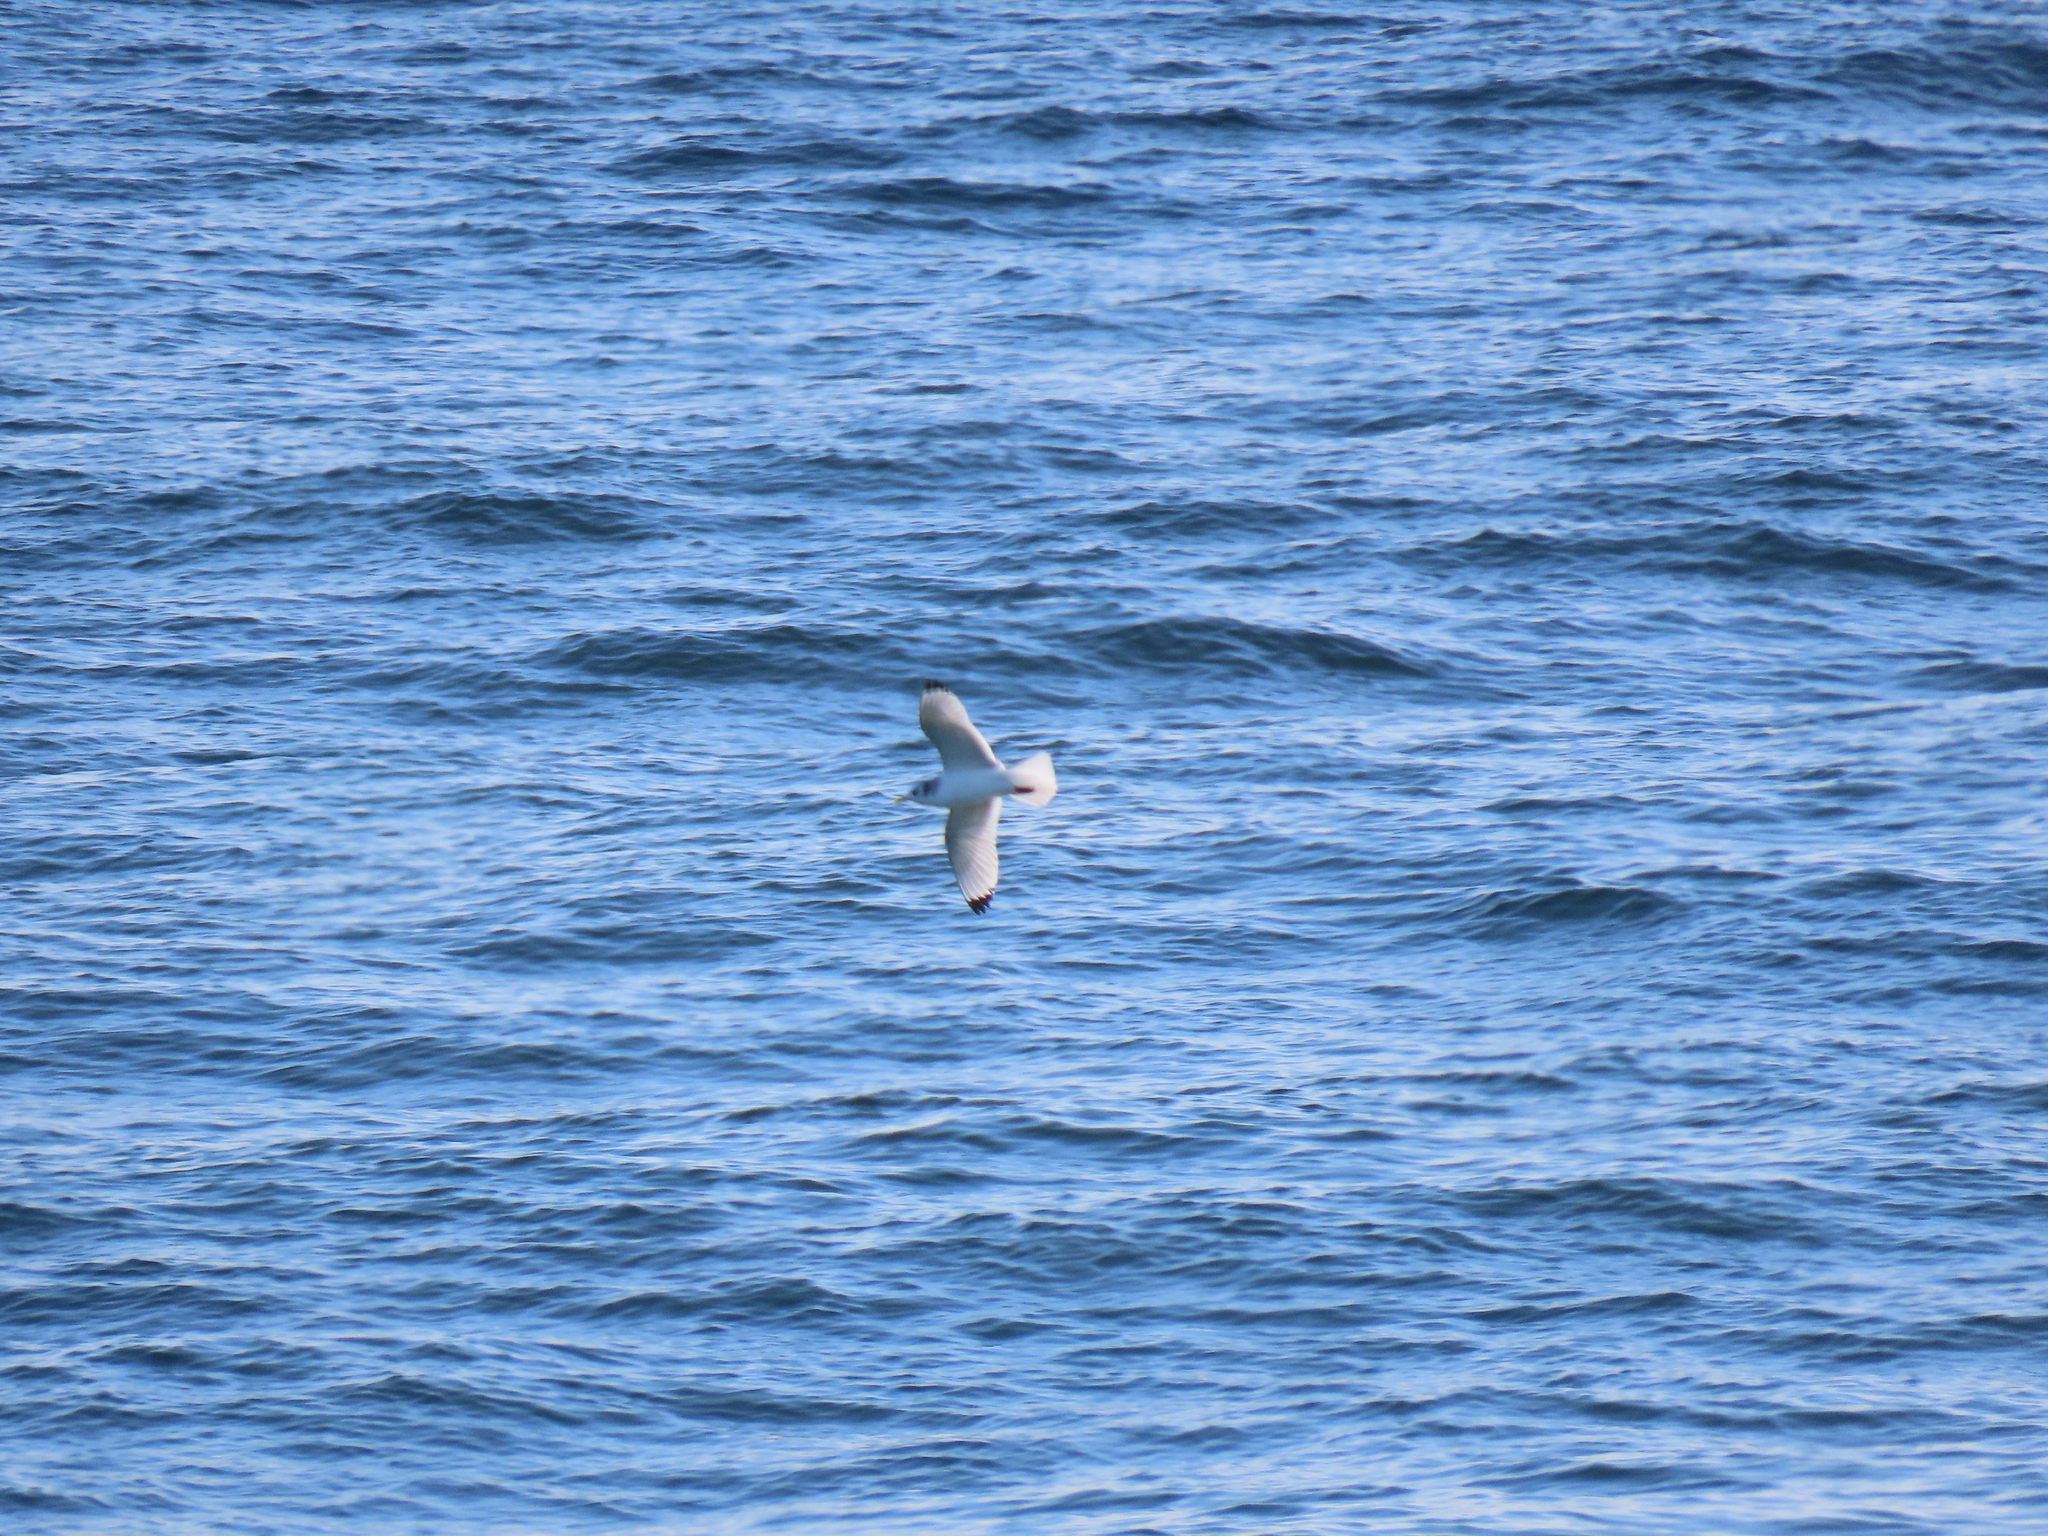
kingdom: Animalia
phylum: Chordata
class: Aves
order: Charadriiformes
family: Laridae
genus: Rissa
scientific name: Rissa tridactyla
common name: Black-legged kittiwake
